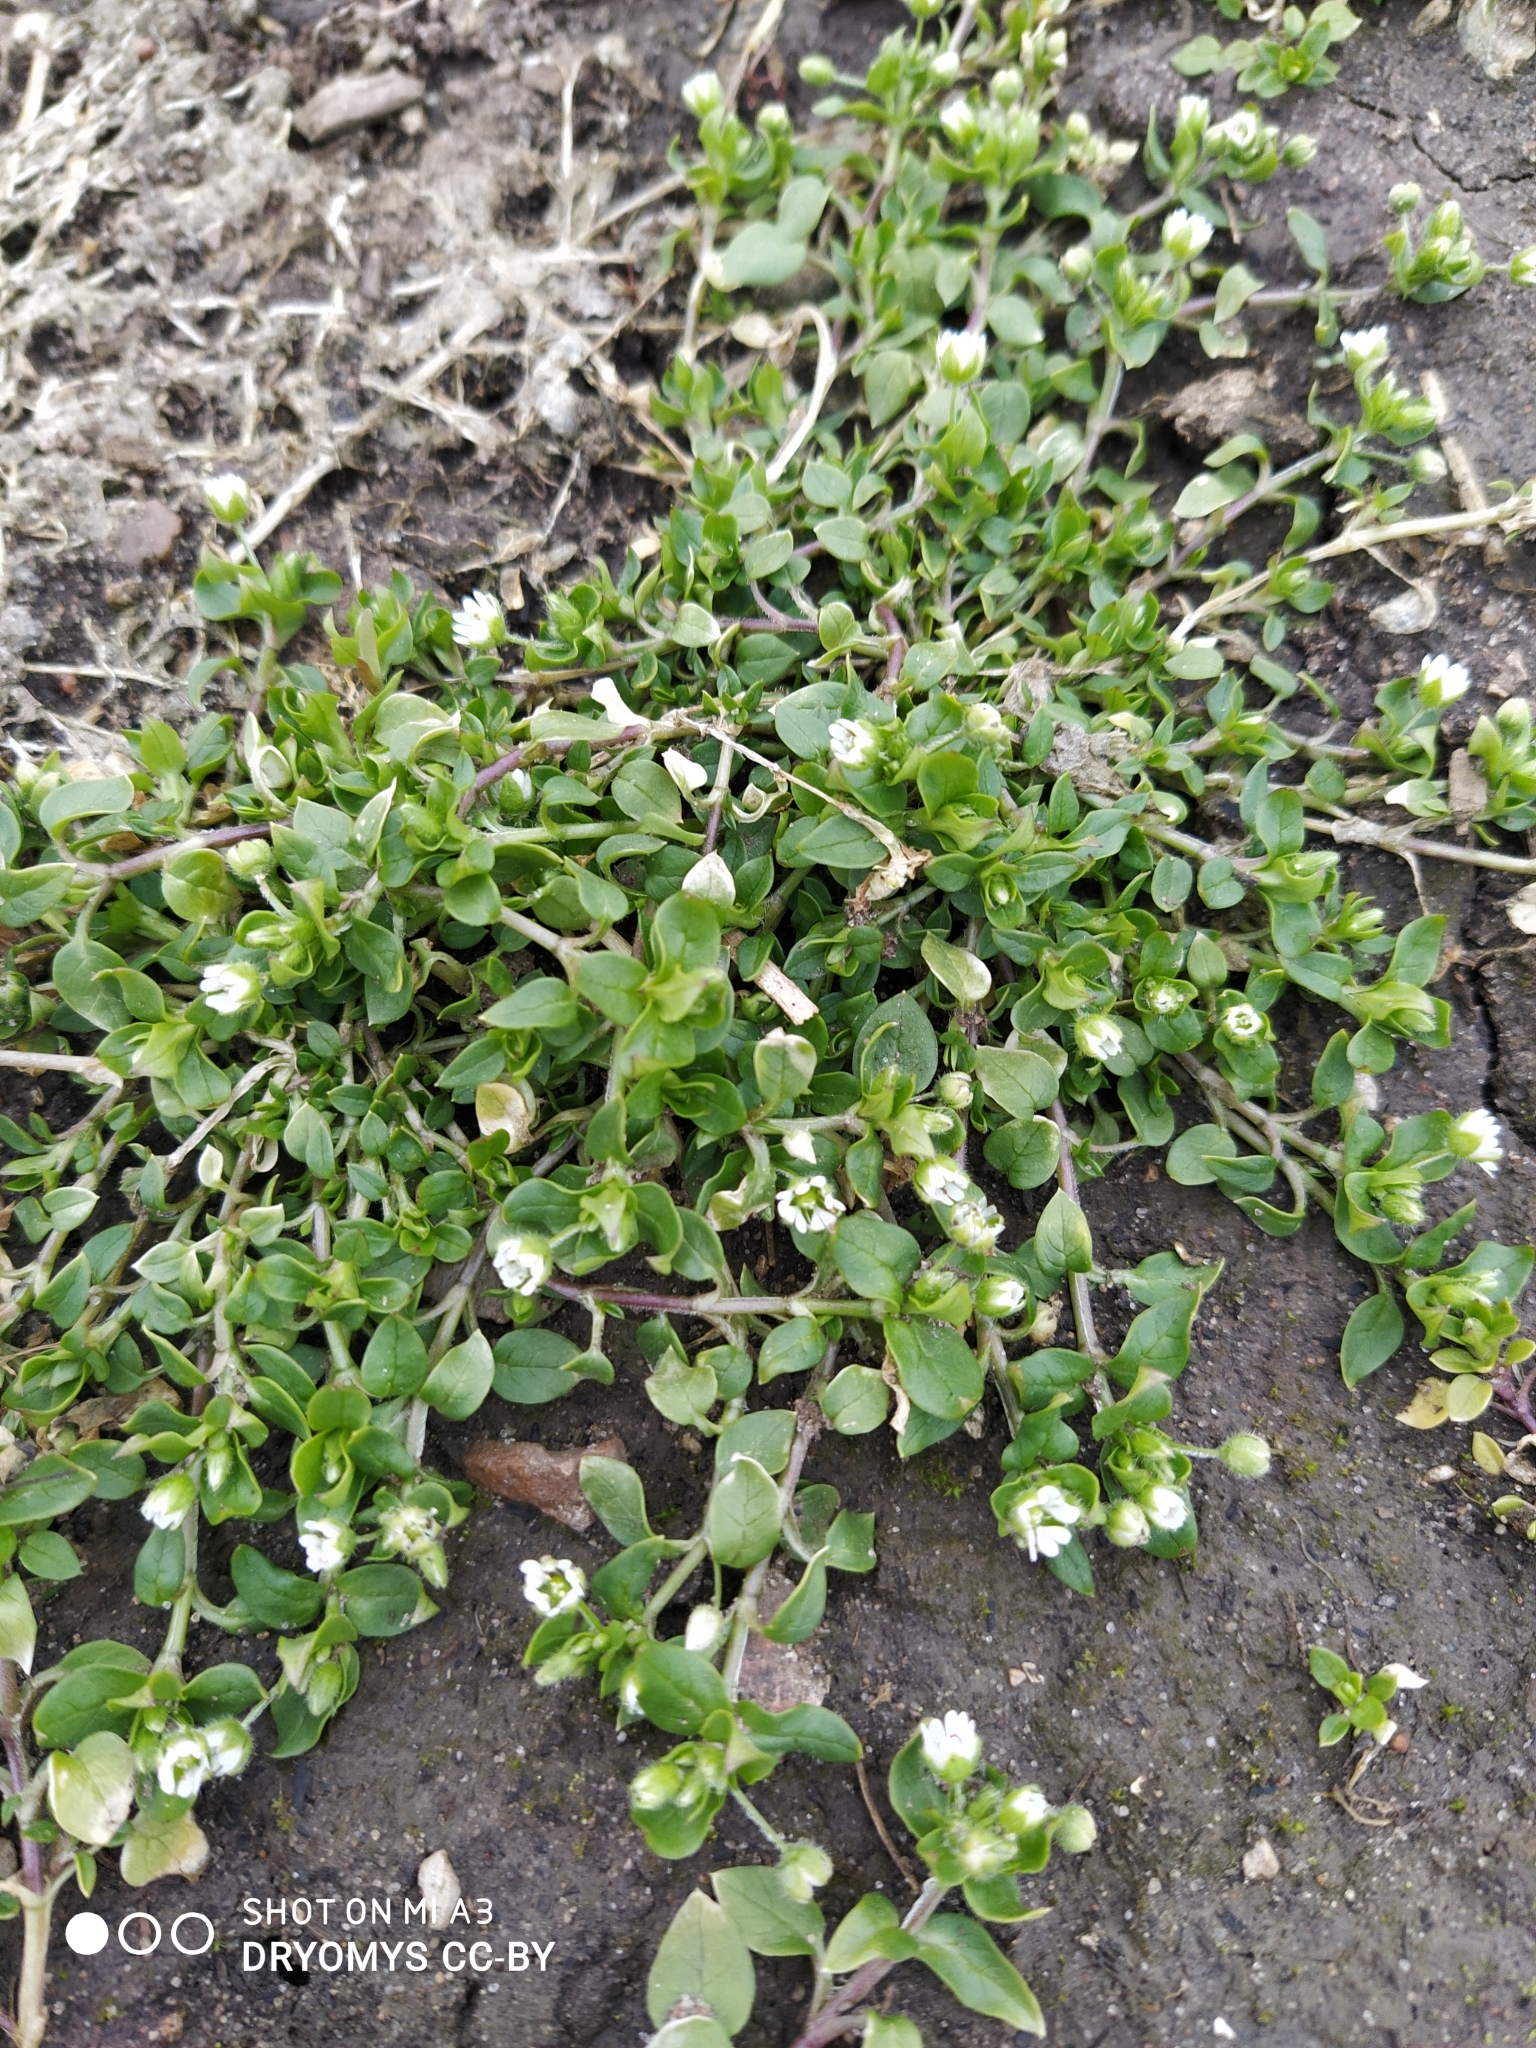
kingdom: Plantae
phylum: Tracheophyta
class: Magnoliopsida
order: Caryophyllales
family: Caryophyllaceae
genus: Stellaria
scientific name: Stellaria media
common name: Common chickweed
